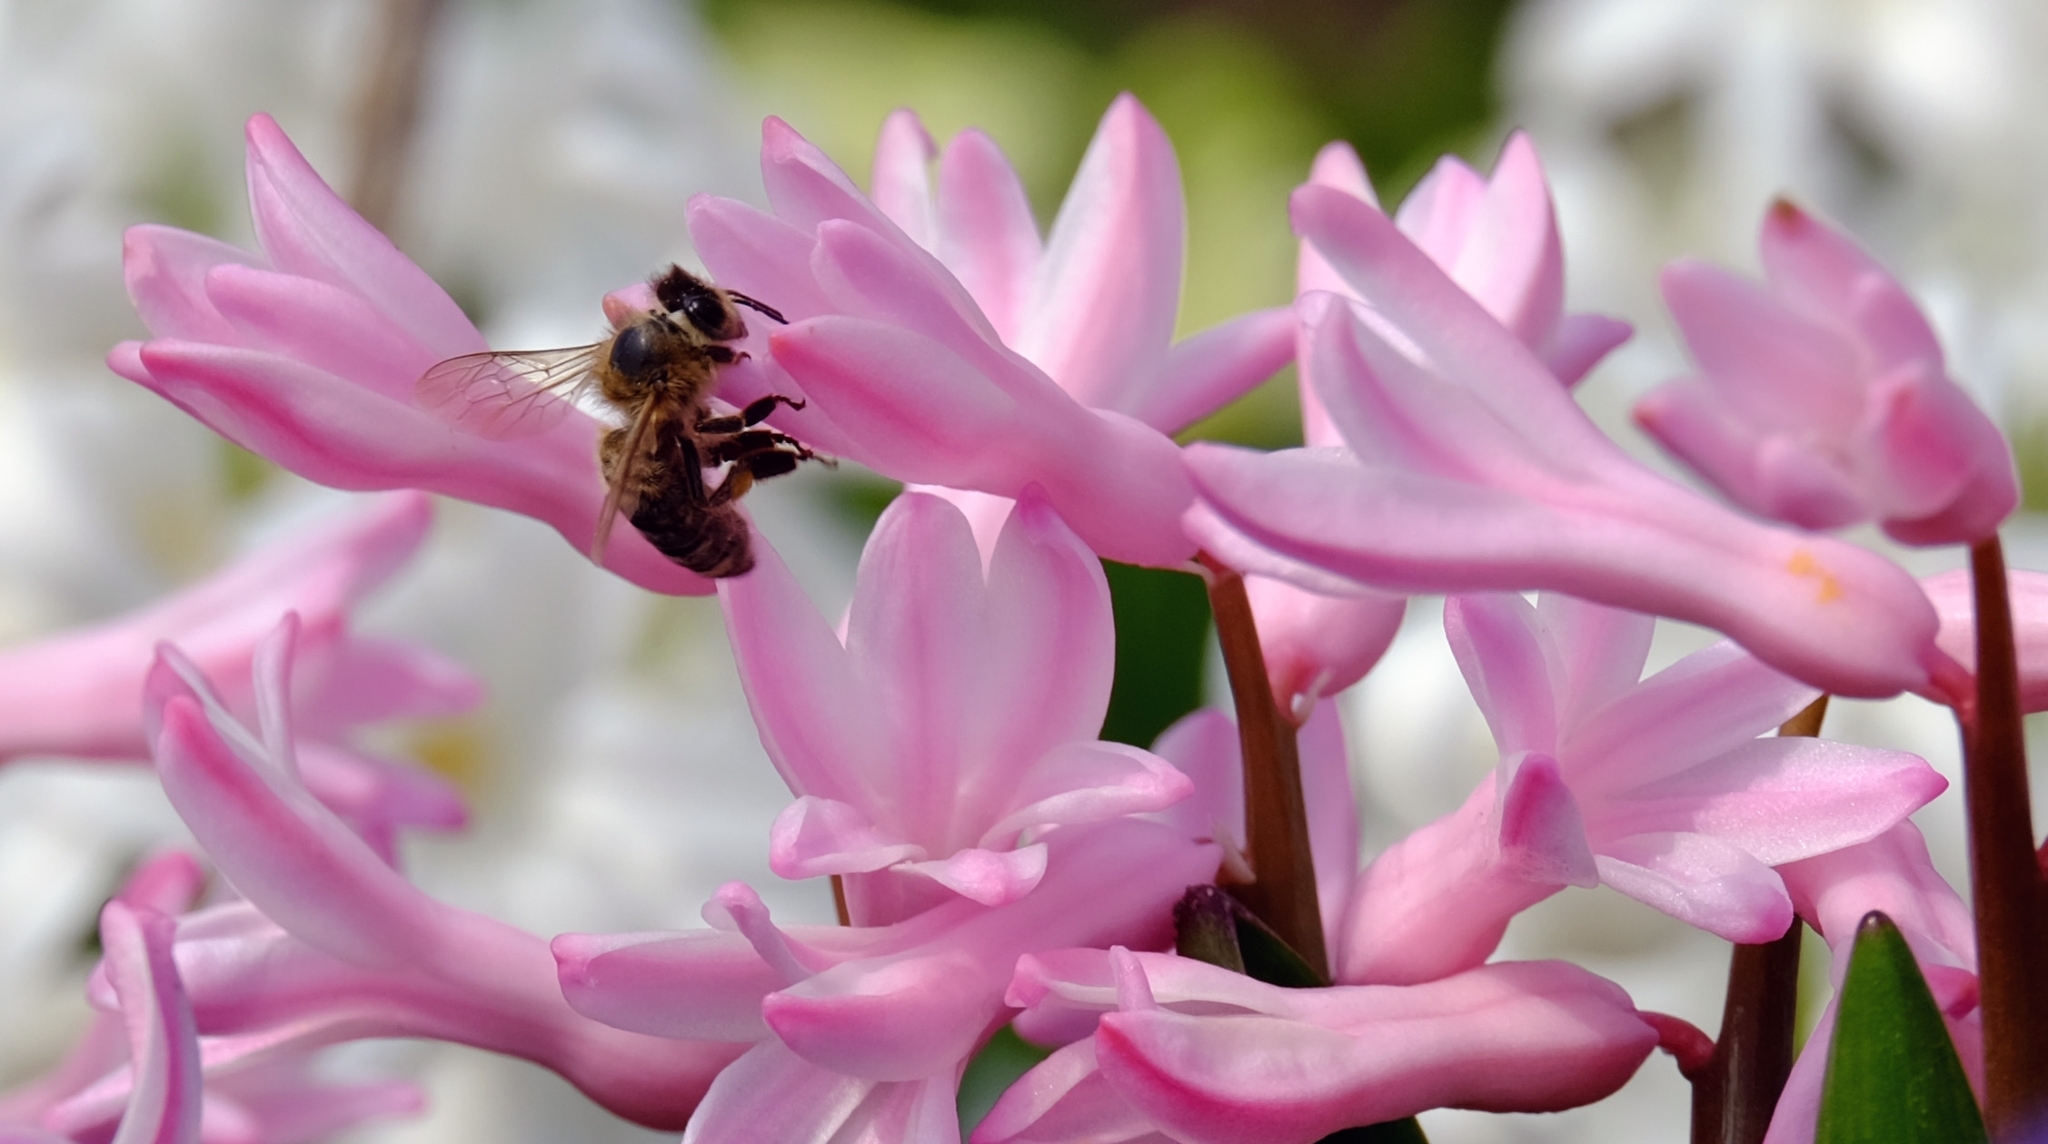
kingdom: Animalia
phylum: Arthropoda
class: Insecta
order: Hymenoptera
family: Apidae
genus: Apis
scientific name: Apis mellifera
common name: Honey bee
